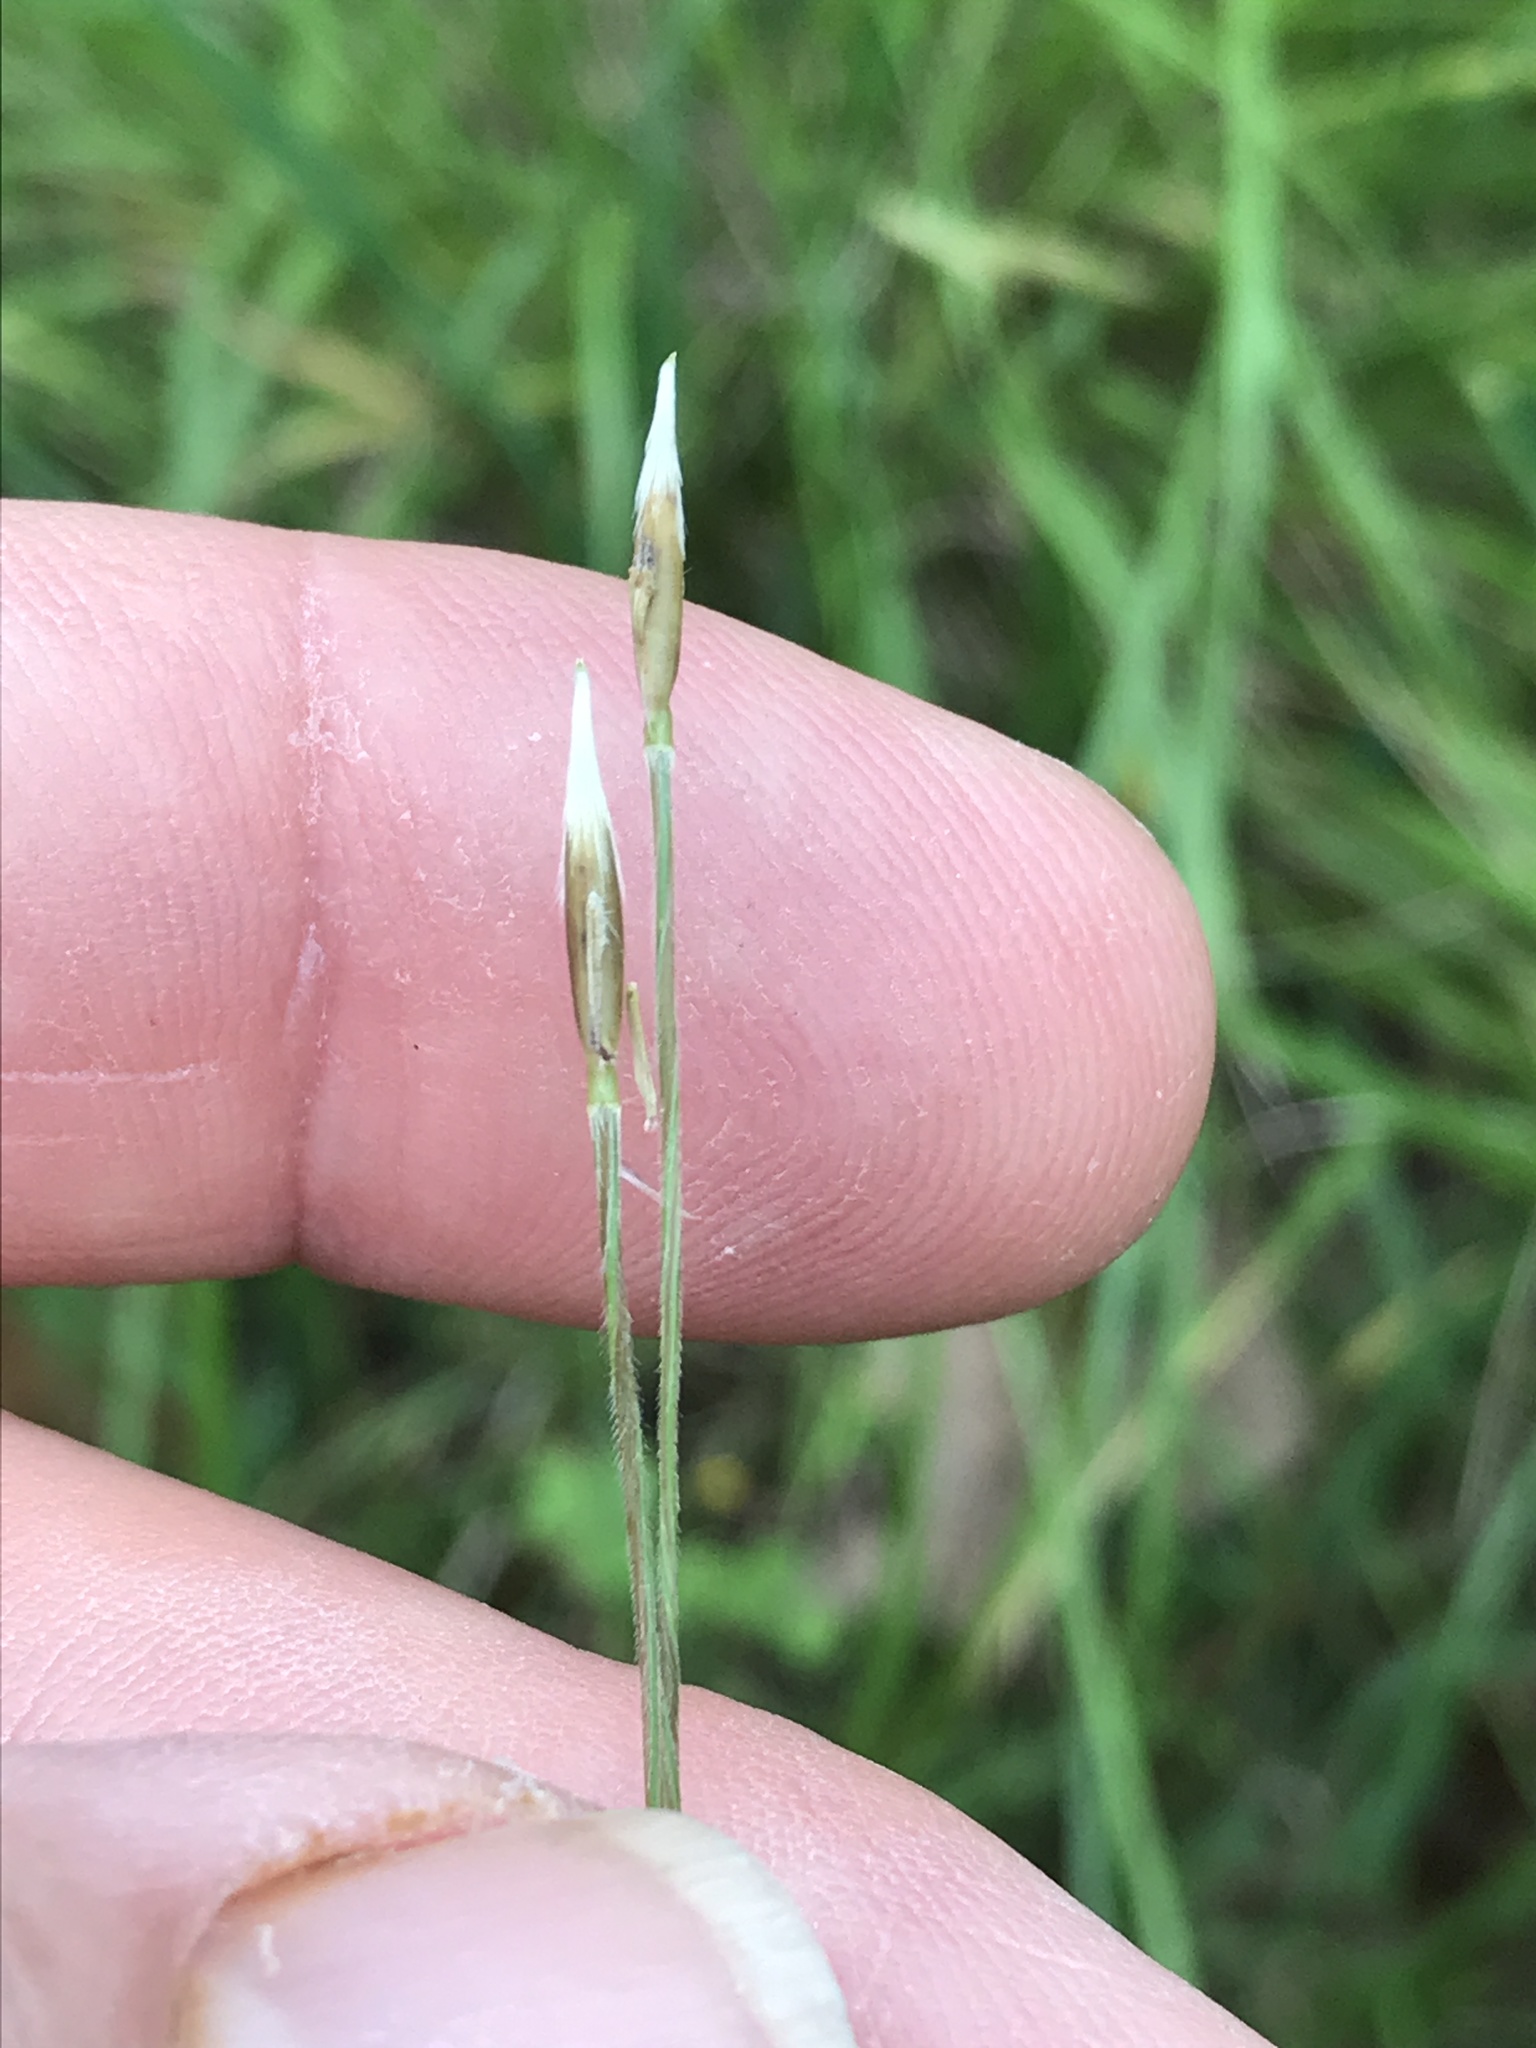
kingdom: Plantae
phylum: Tracheophyta
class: Liliopsida
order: Poales
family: Poaceae
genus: Nassella
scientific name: Nassella leucotricha
